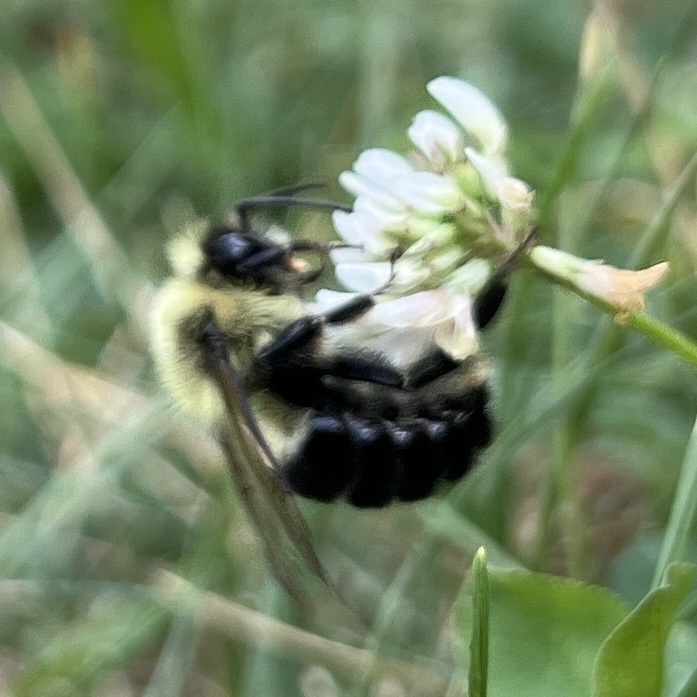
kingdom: Animalia
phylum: Arthropoda
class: Insecta
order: Hymenoptera
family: Apidae
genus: Bombus
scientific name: Bombus impatiens
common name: Common eastern bumble bee
